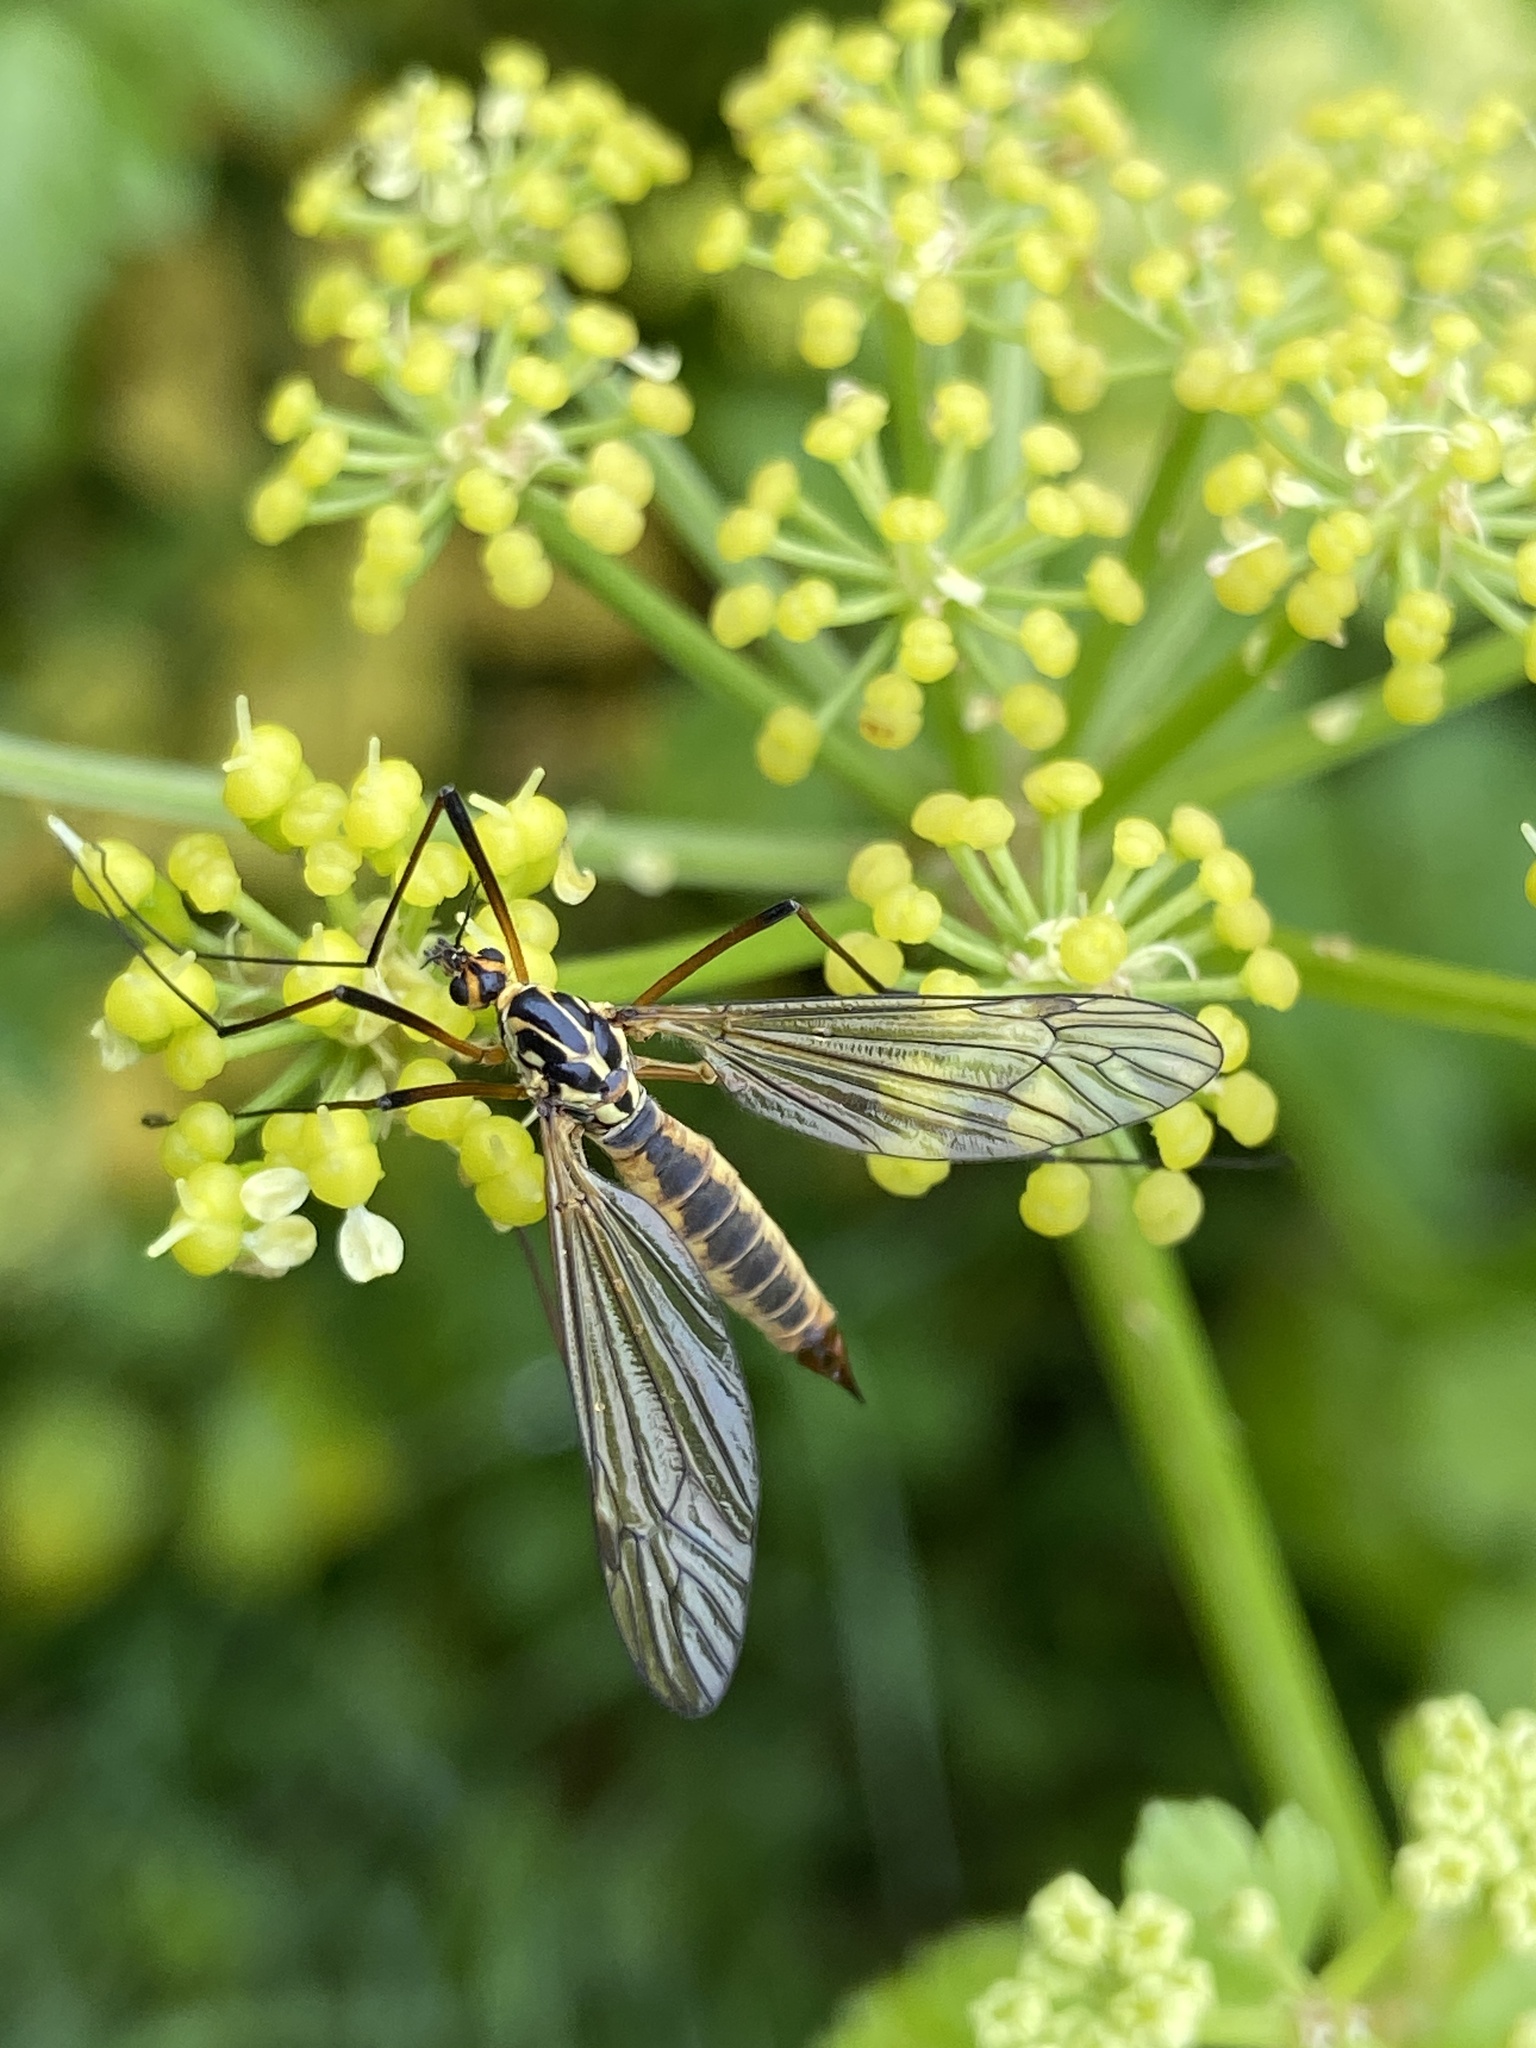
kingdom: Animalia
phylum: Arthropoda
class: Insecta
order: Diptera
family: Tipulidae
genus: Nephrotoma
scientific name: Nephrotoma appendiculata
